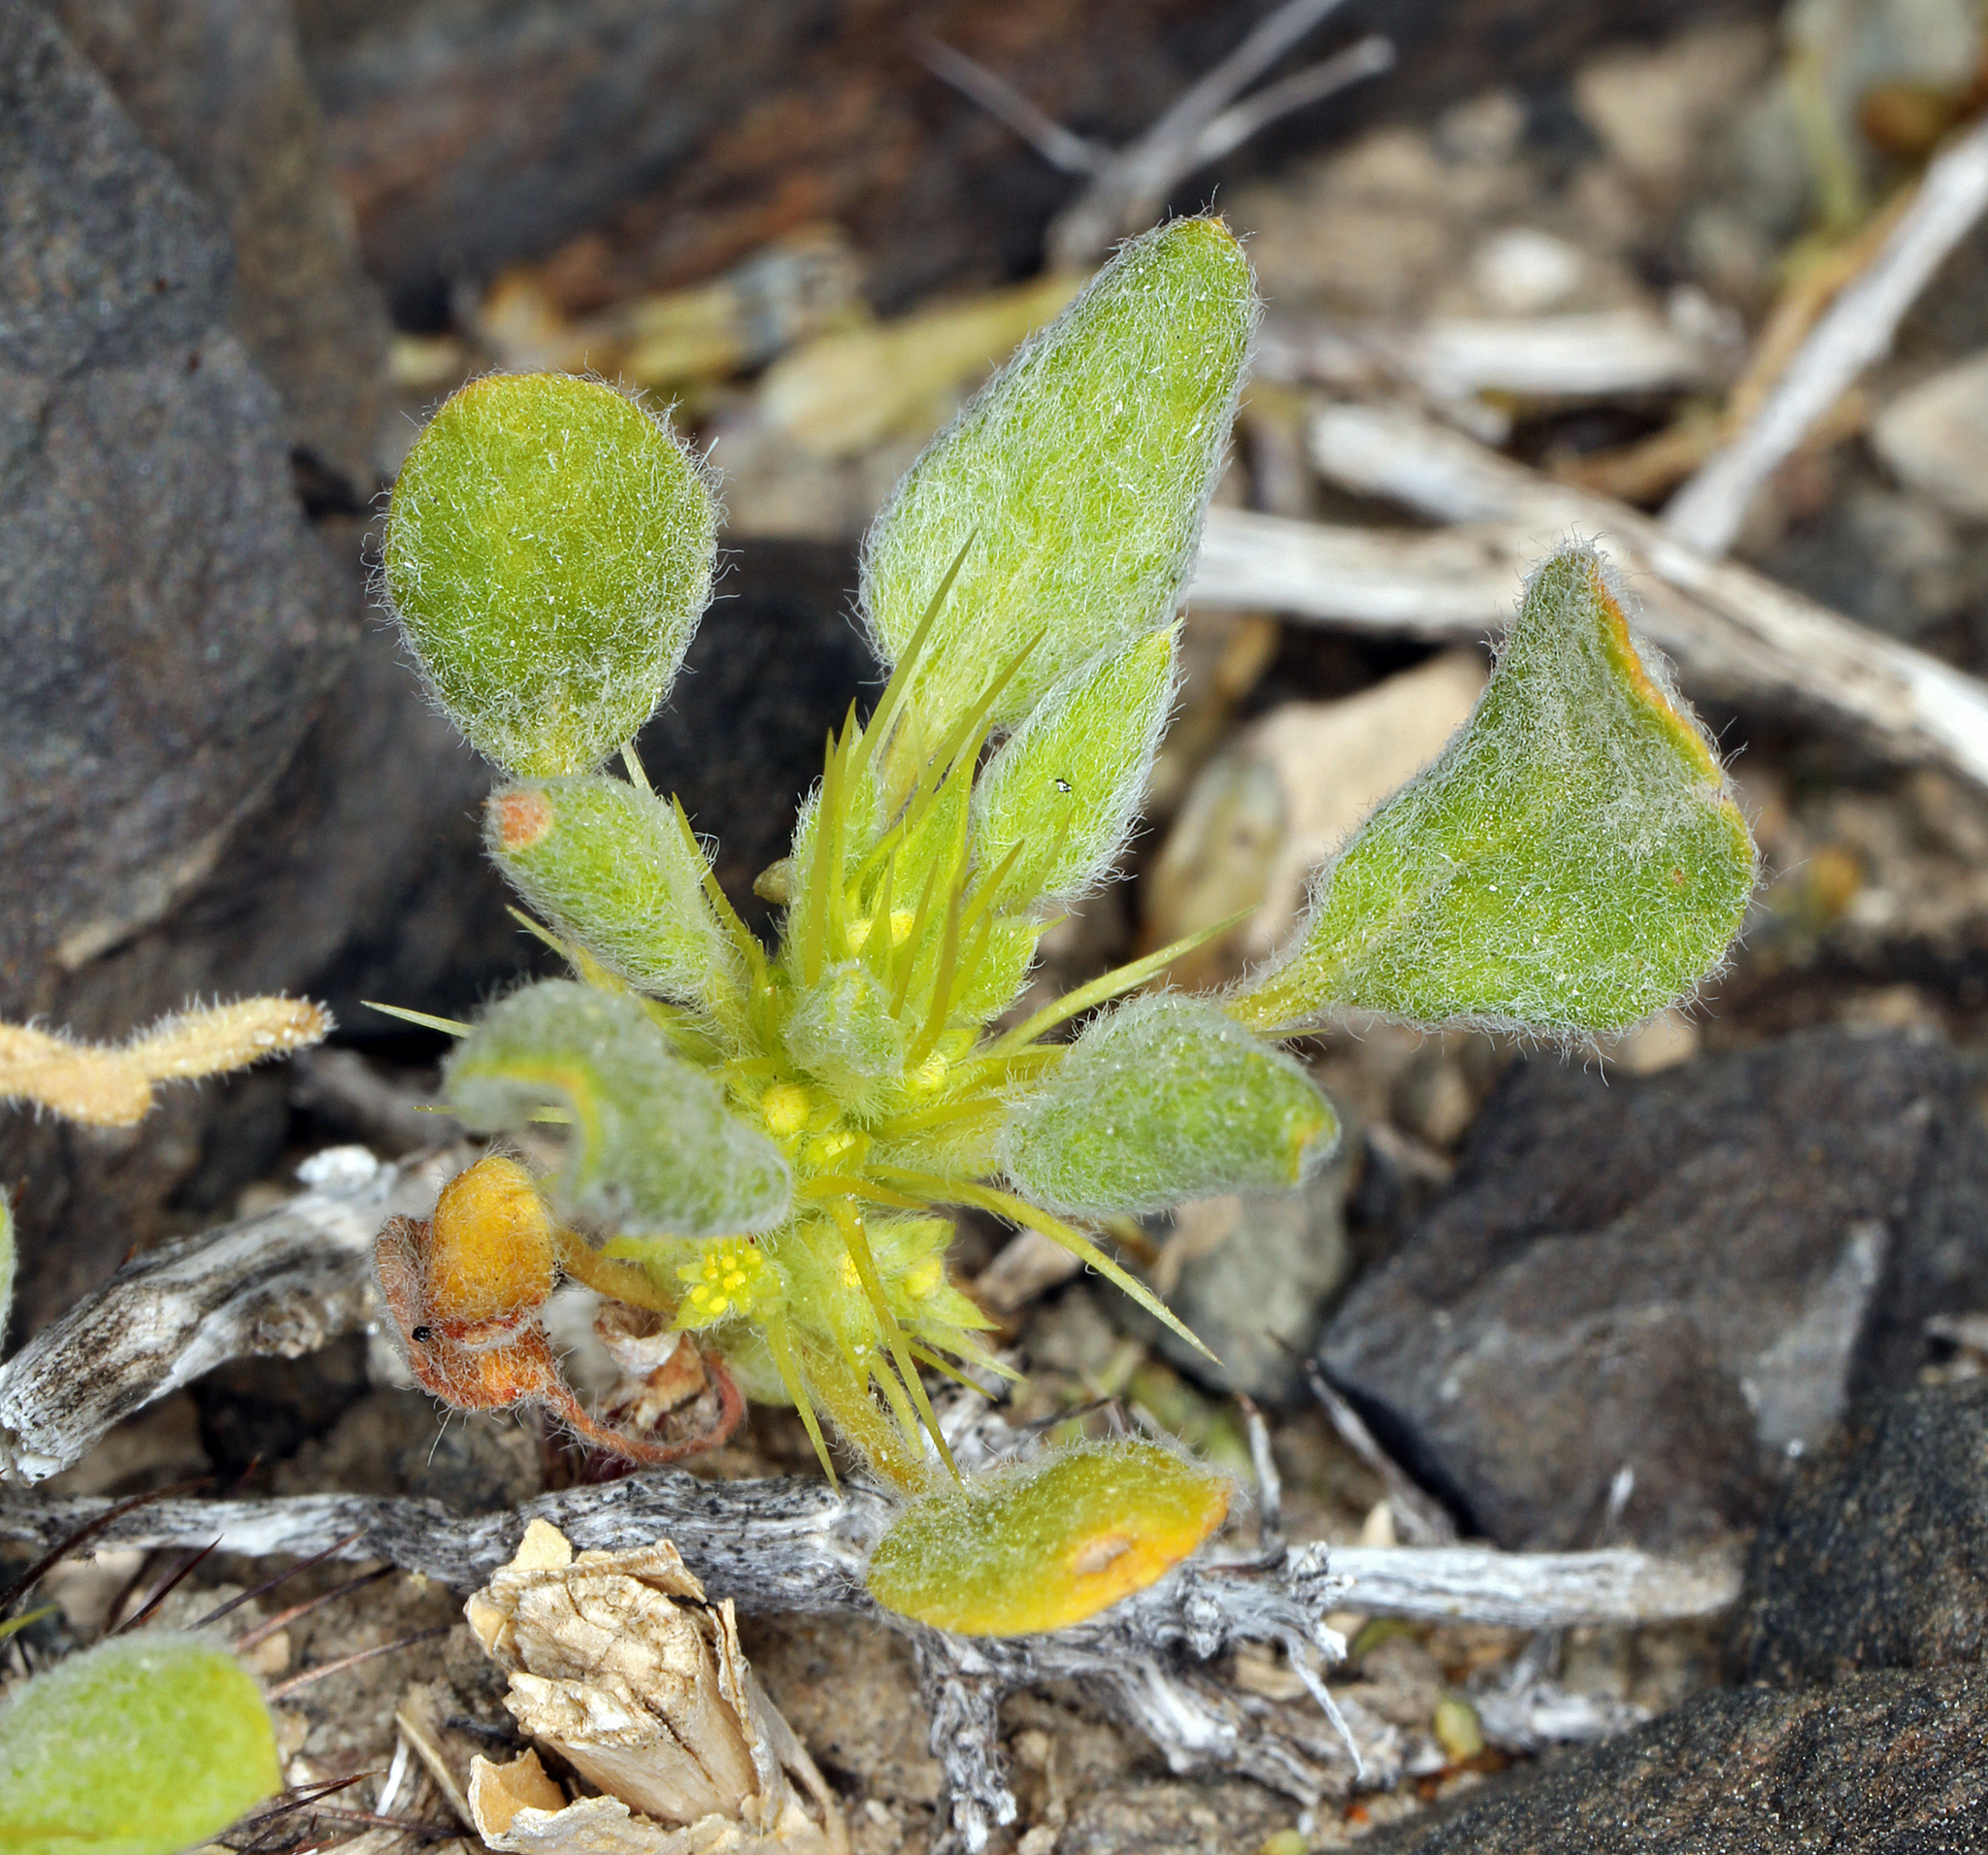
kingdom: Plantae
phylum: Tracheophyta
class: Magnoliopsida
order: Caryophyllales
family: Polygonaceae
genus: Chorizanthe
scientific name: Chorizanthe rigida
